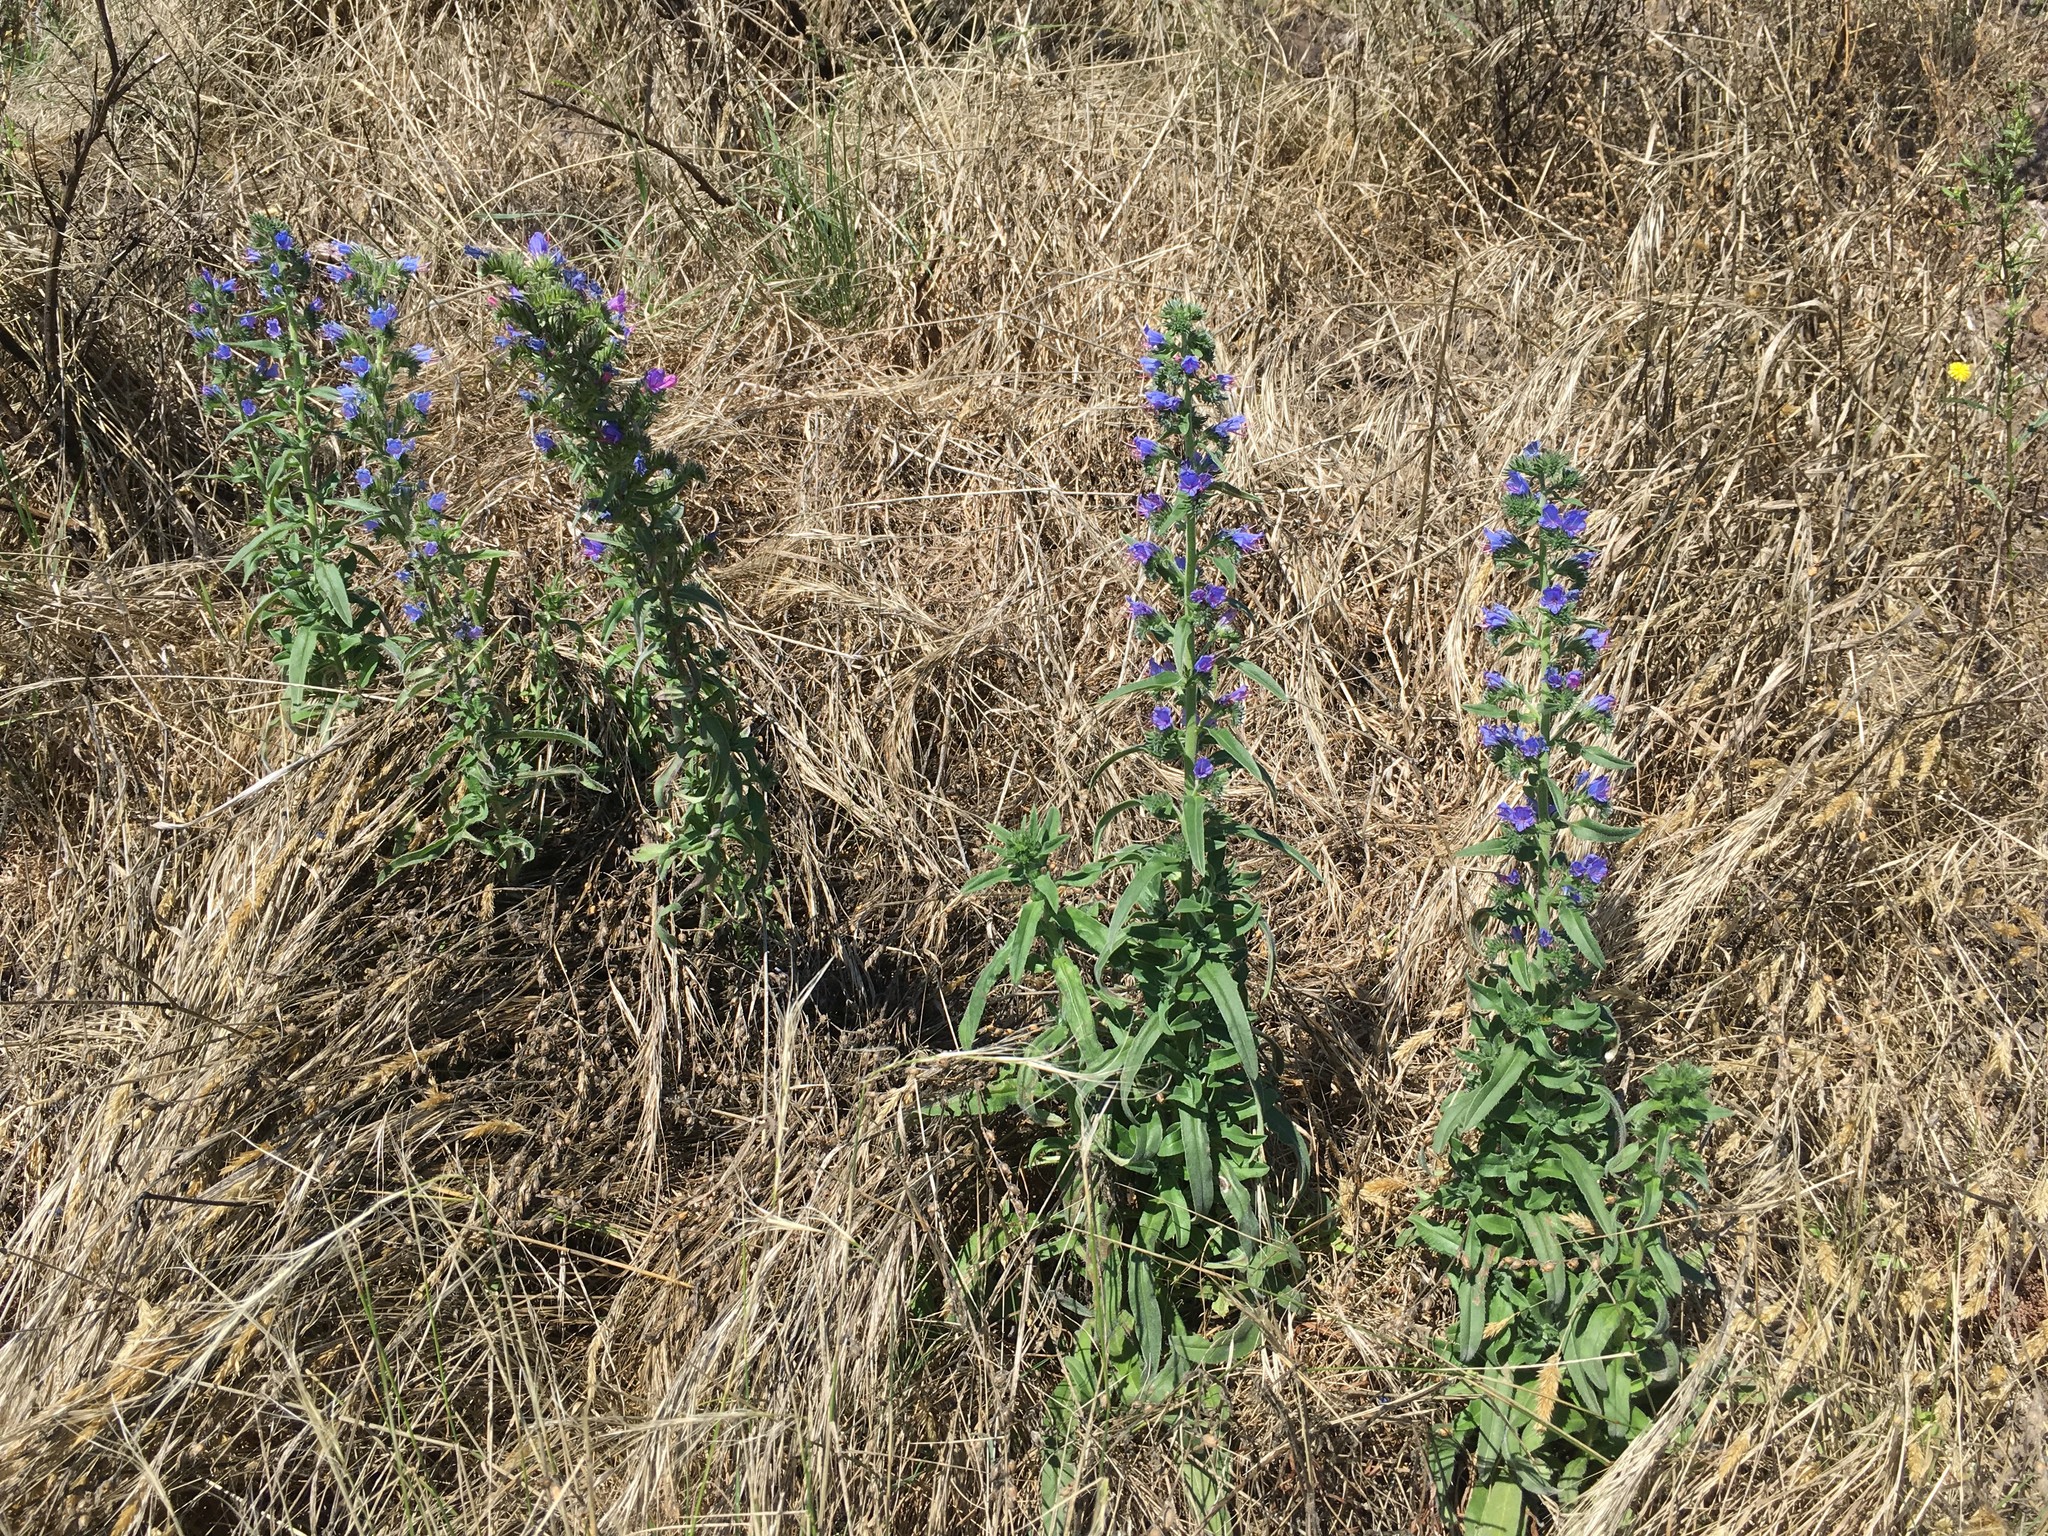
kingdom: Plantae
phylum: Tracheophyta
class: Magnoliopsida
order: Boraginales
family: Boraginaceae
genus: Echium
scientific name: Echium vulgare
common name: Common viper's bugloss
